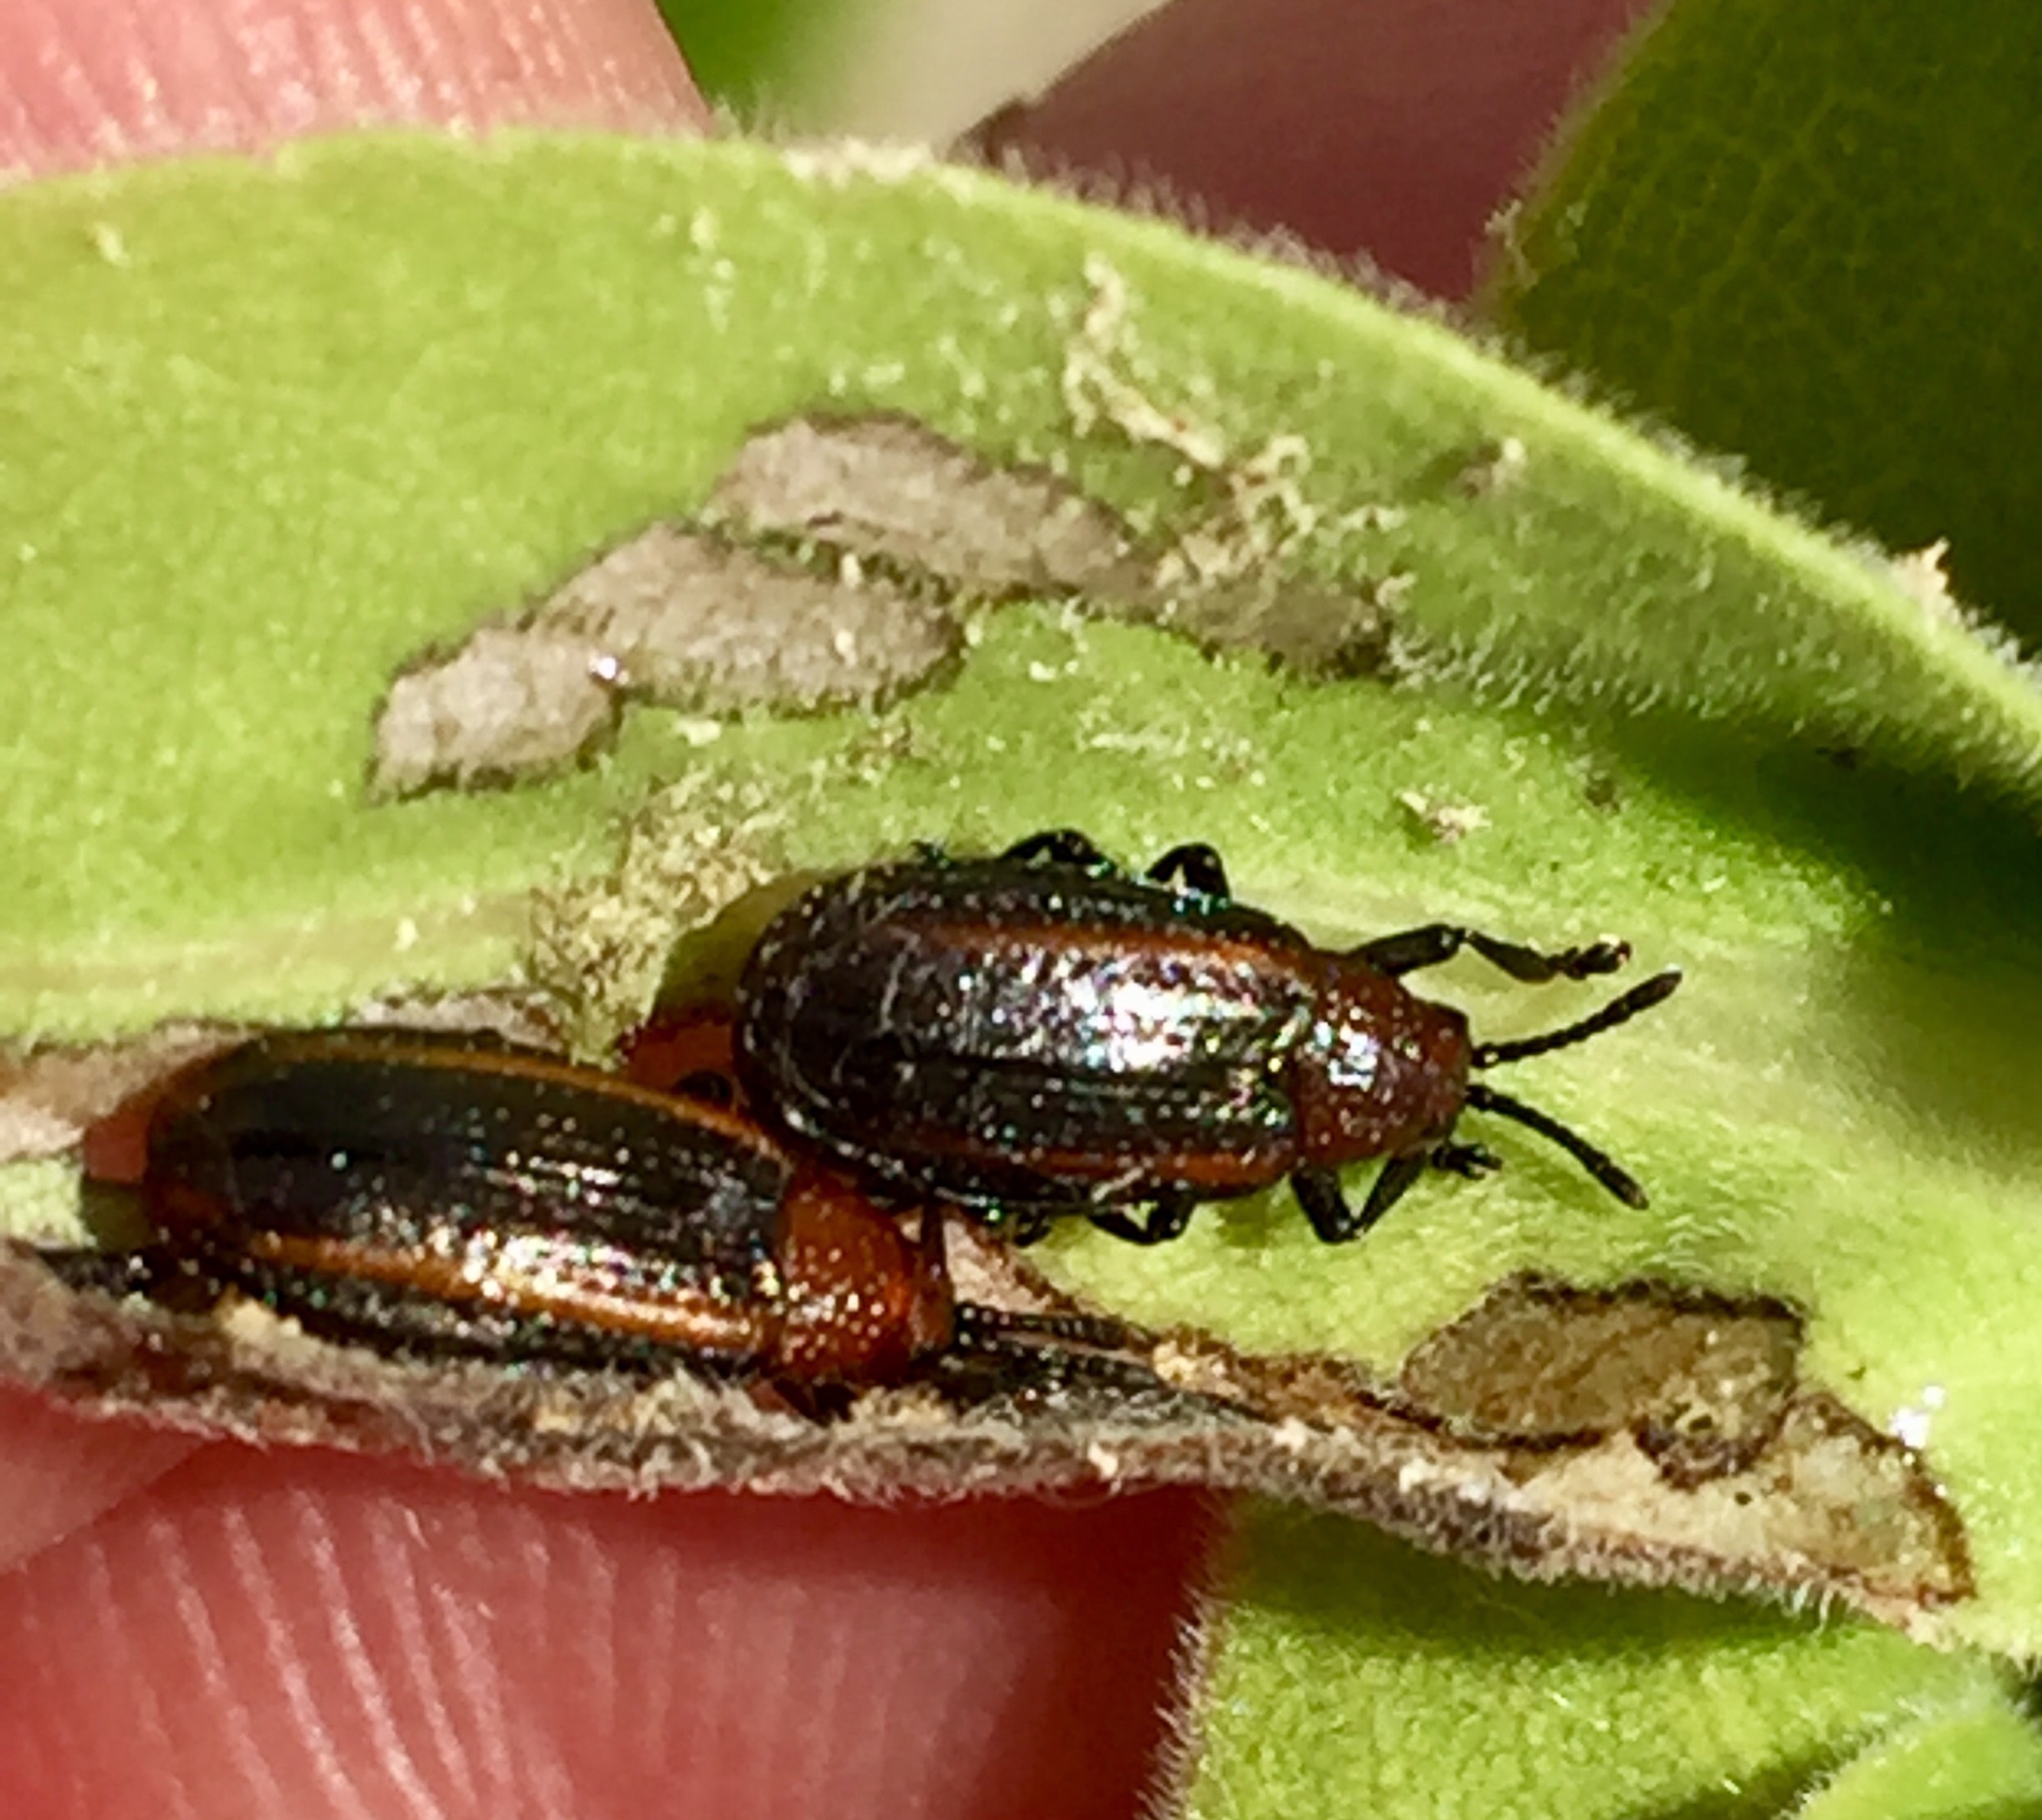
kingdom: Animalia
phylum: Arthropoda
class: Insecta
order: Coleoptera
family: Chrysomelidae
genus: Microrhopala
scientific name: Microrhopala vittata
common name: Goldenrod leaf miner beetle
